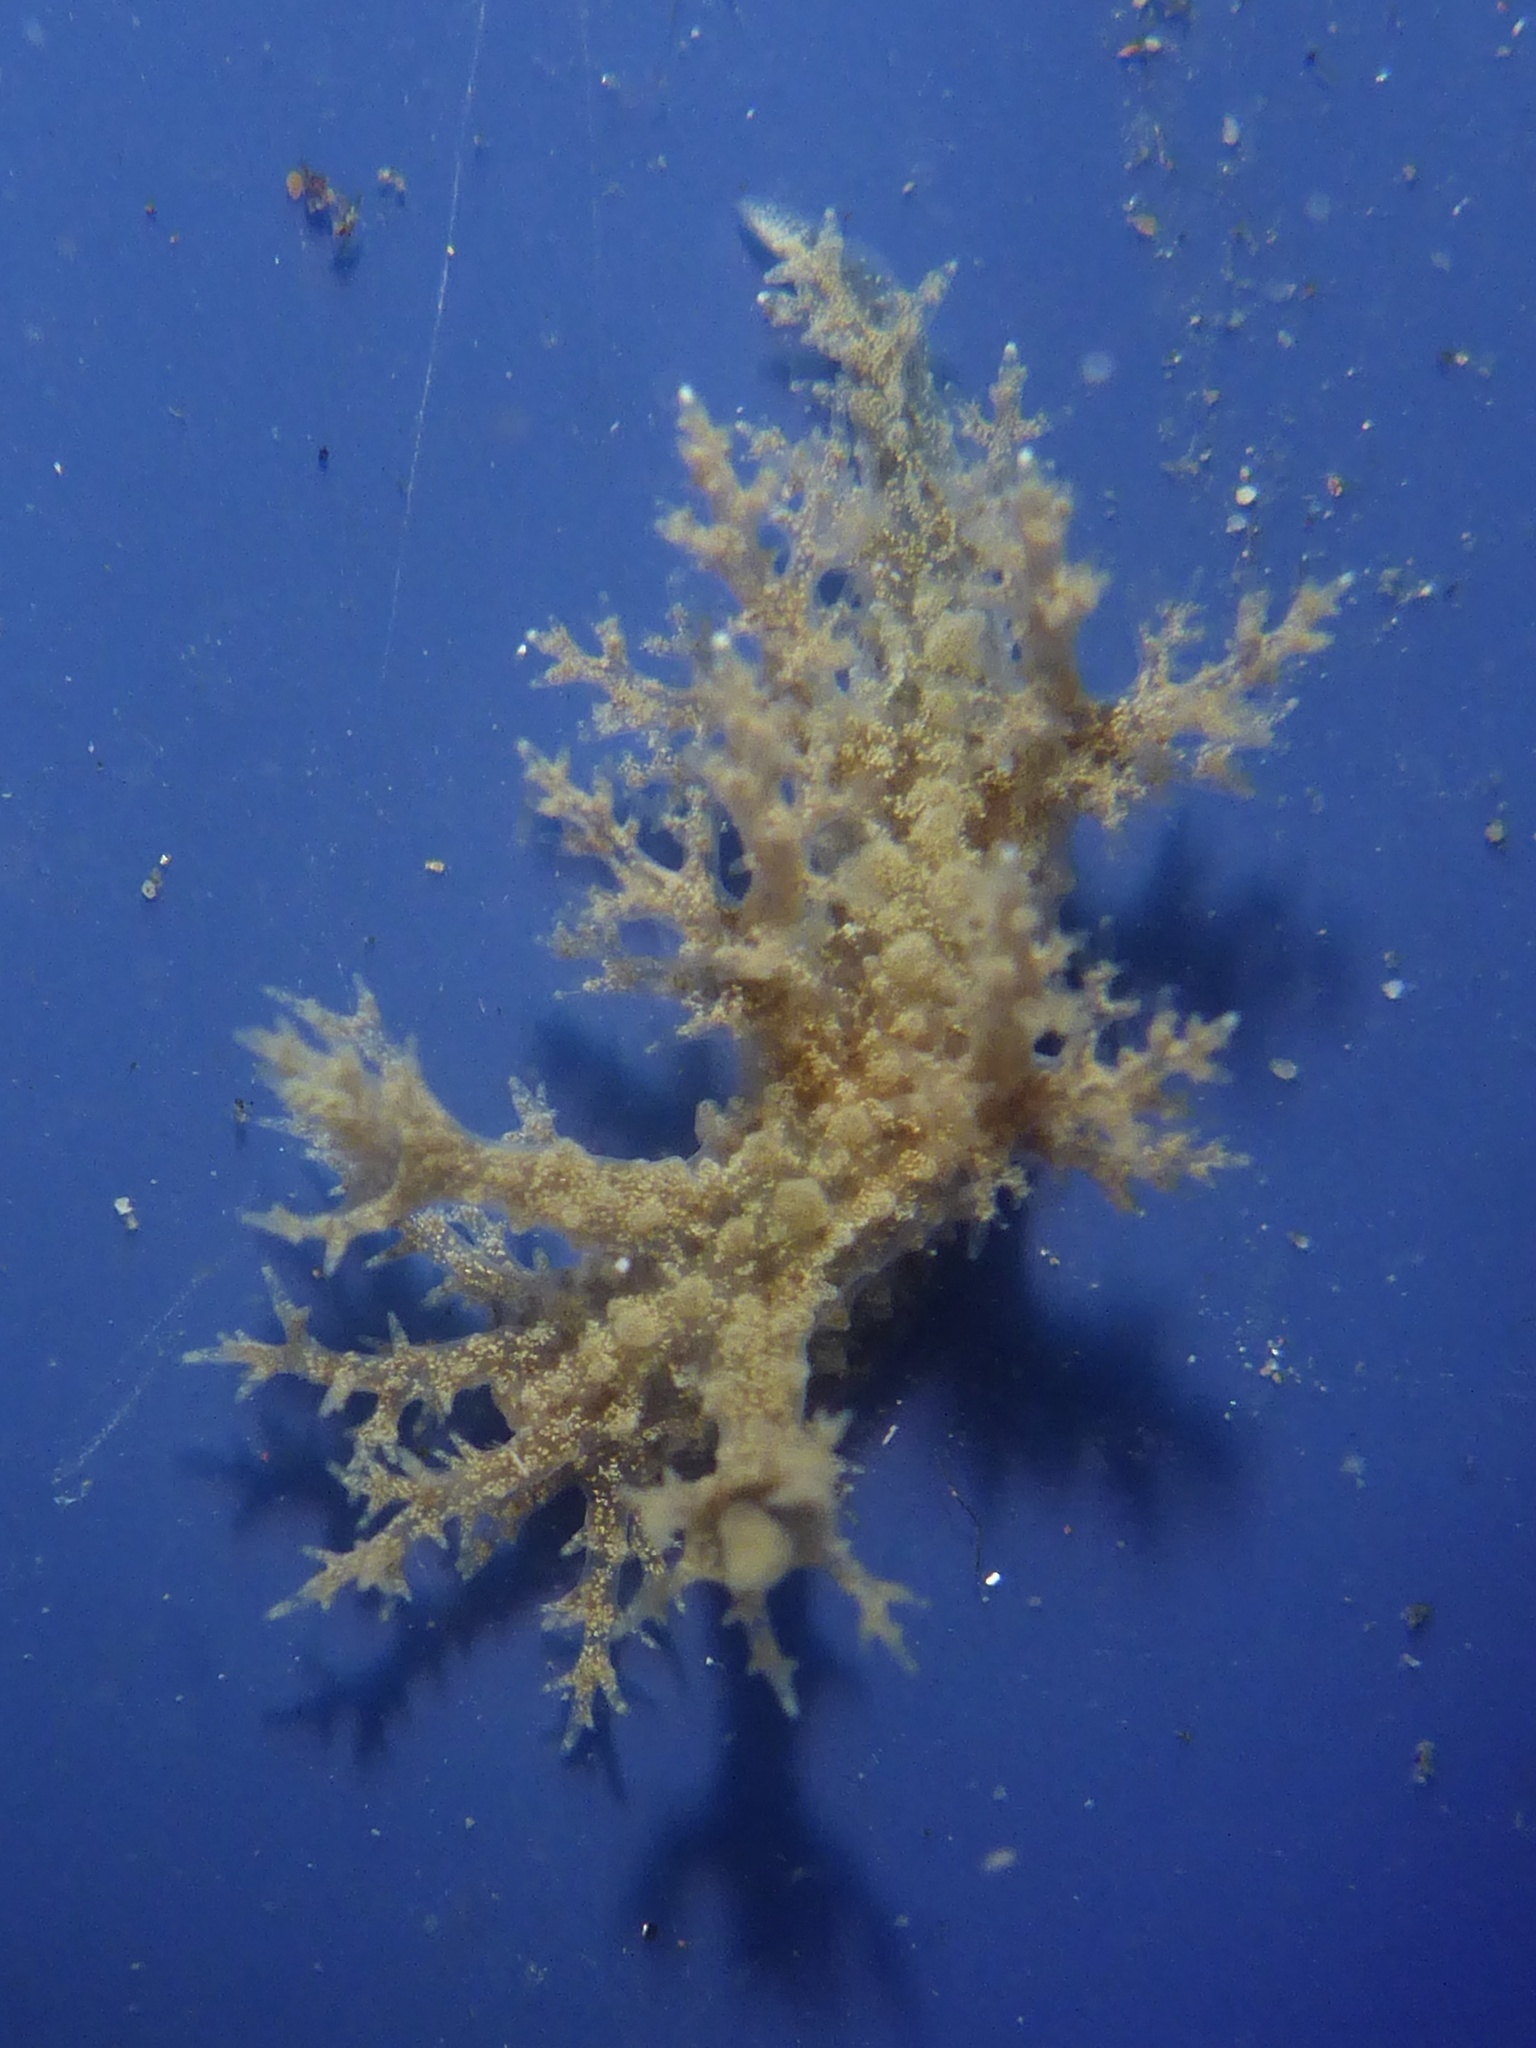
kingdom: Animalia
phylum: Mollusca
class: Gastropoda
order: Nudibranchia
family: Dendronotidae
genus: Dendronotus
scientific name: Dendronotus venustus
